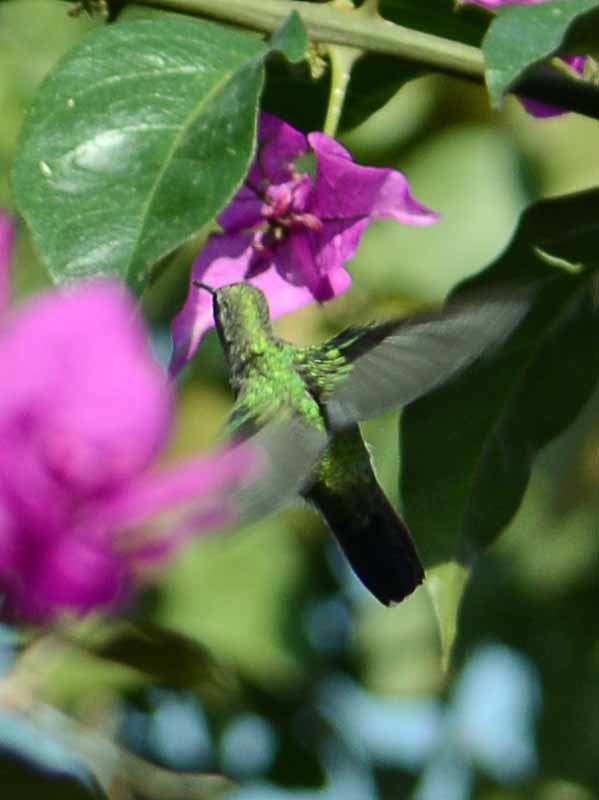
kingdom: Animalia
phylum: Chordata
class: Aves
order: Apodiformes
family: Trochilidae
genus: Cynanthus
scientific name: Cynanthus latirostris
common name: Broad-billed hummingbird
